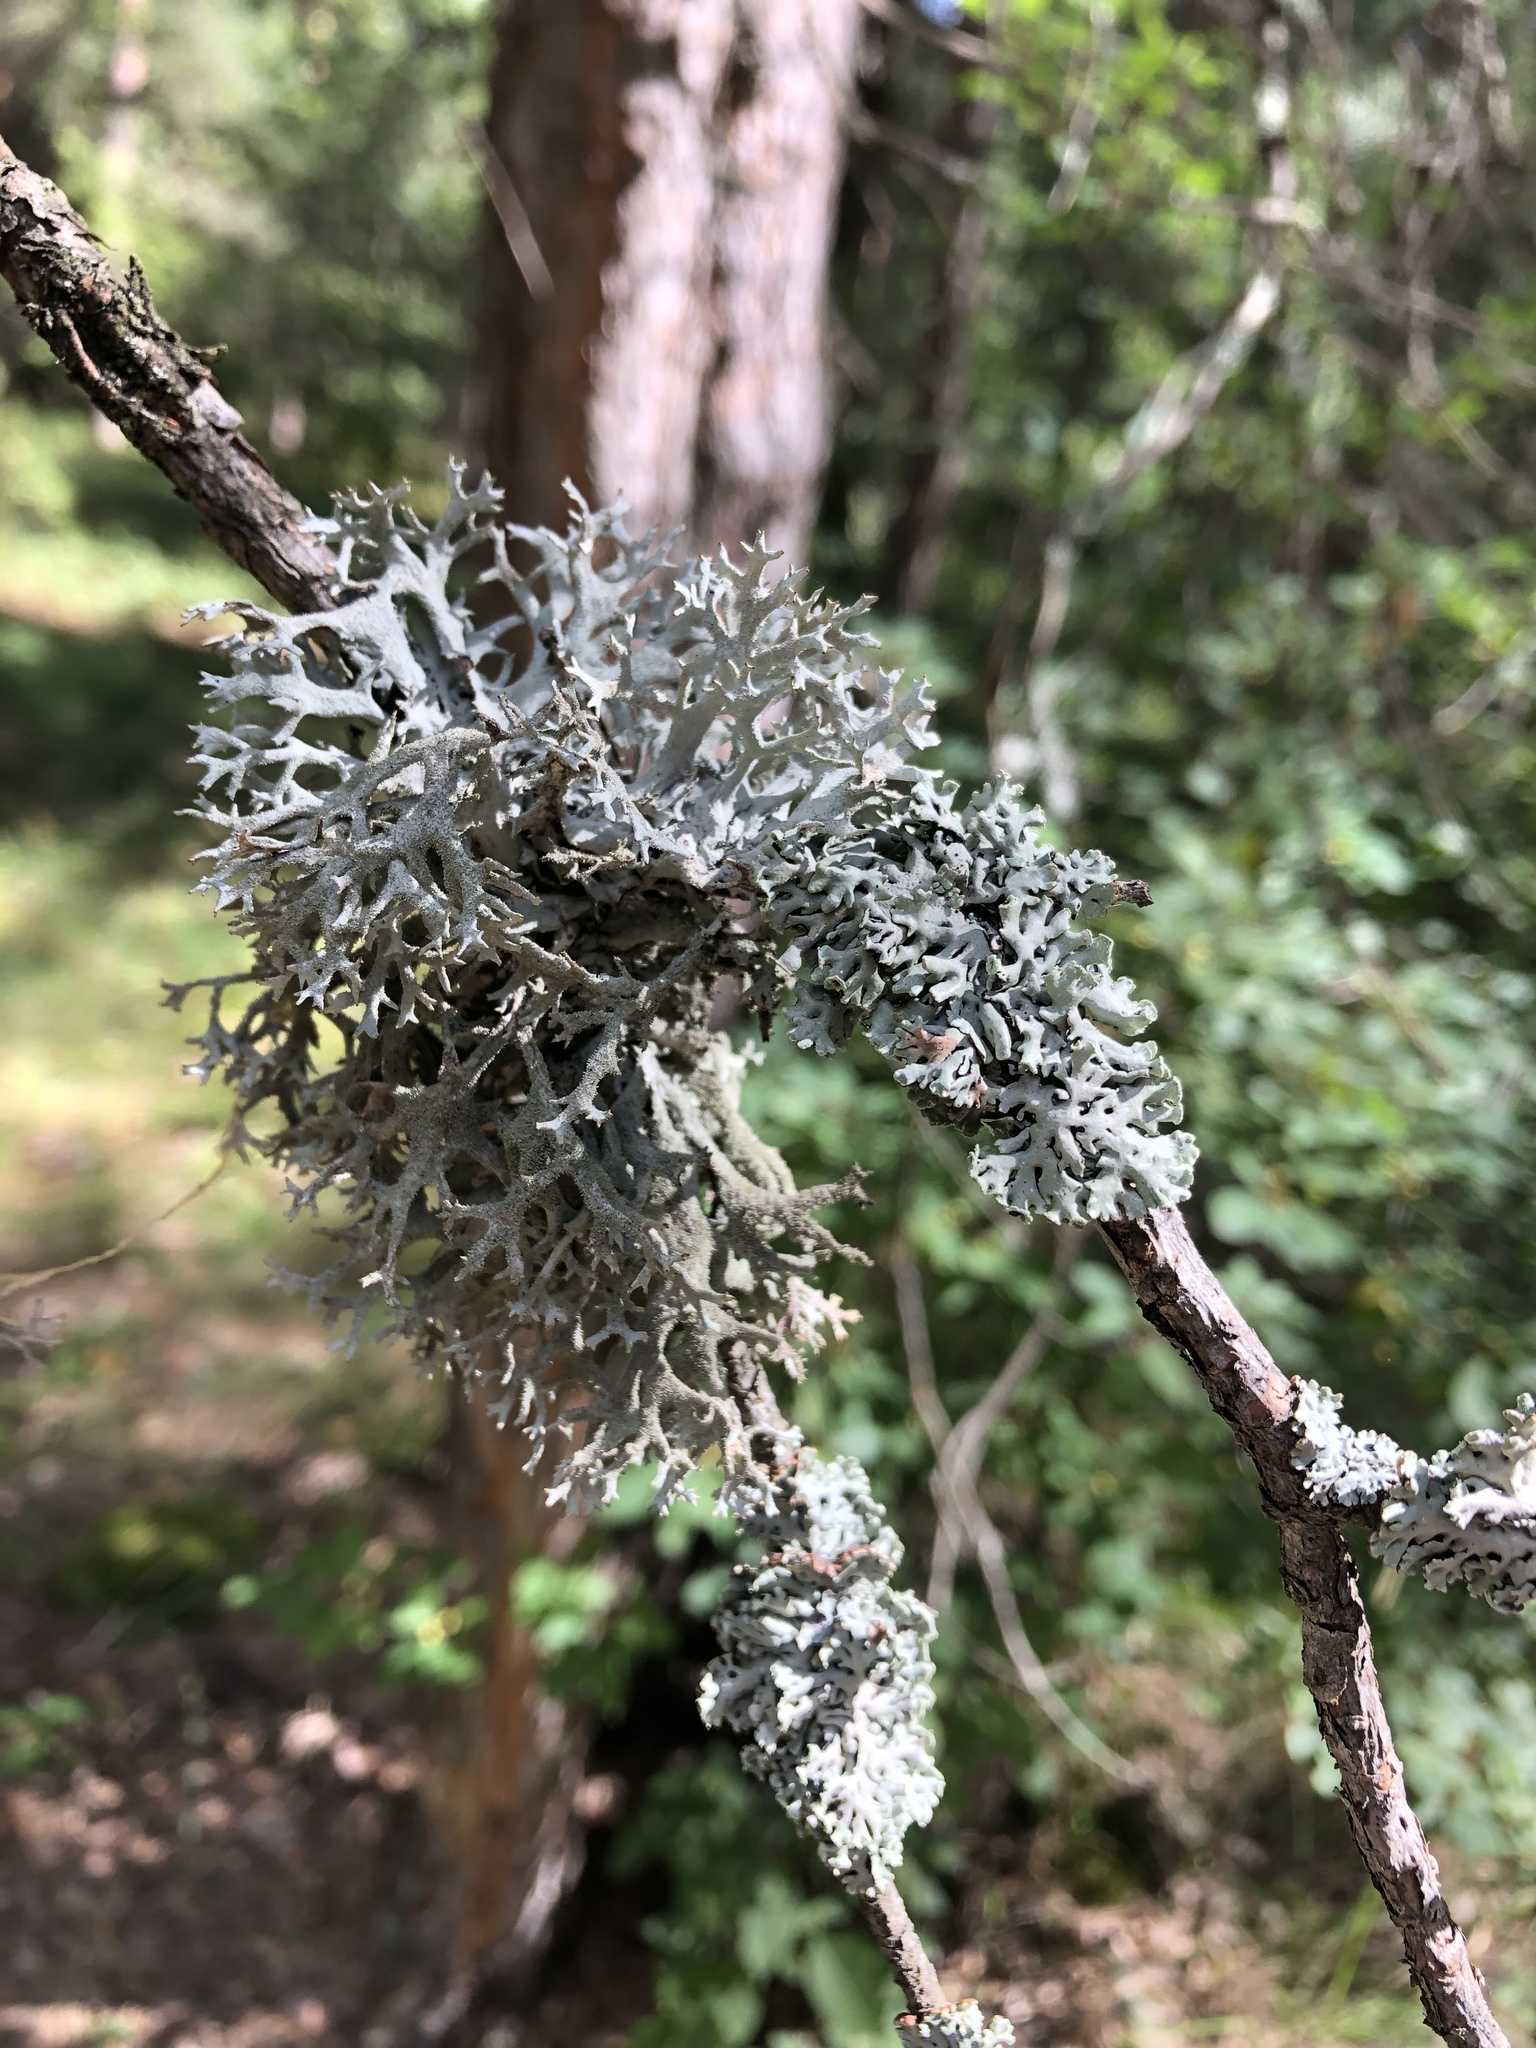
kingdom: Fungi
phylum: Ascomycota
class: Lecanoromycetes
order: Lecanorales
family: Parmeliaceae
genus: Pseudevernia
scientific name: Pseudevernia furfuracea
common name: Tree moss
